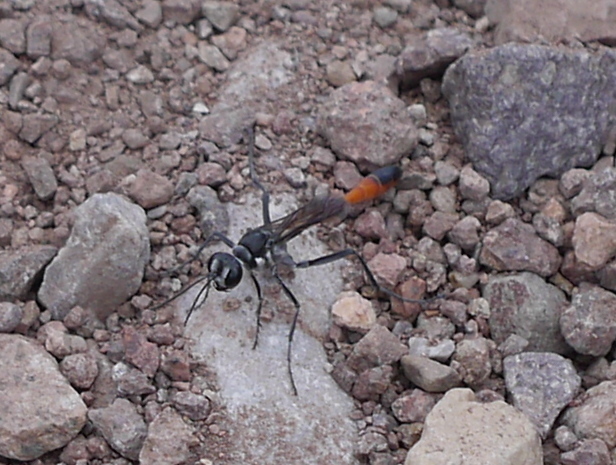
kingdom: Animalia
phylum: Arthropoda
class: Insecta
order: Hymenoptera
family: Sphecidae
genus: Ammophila
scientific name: Ammophila
